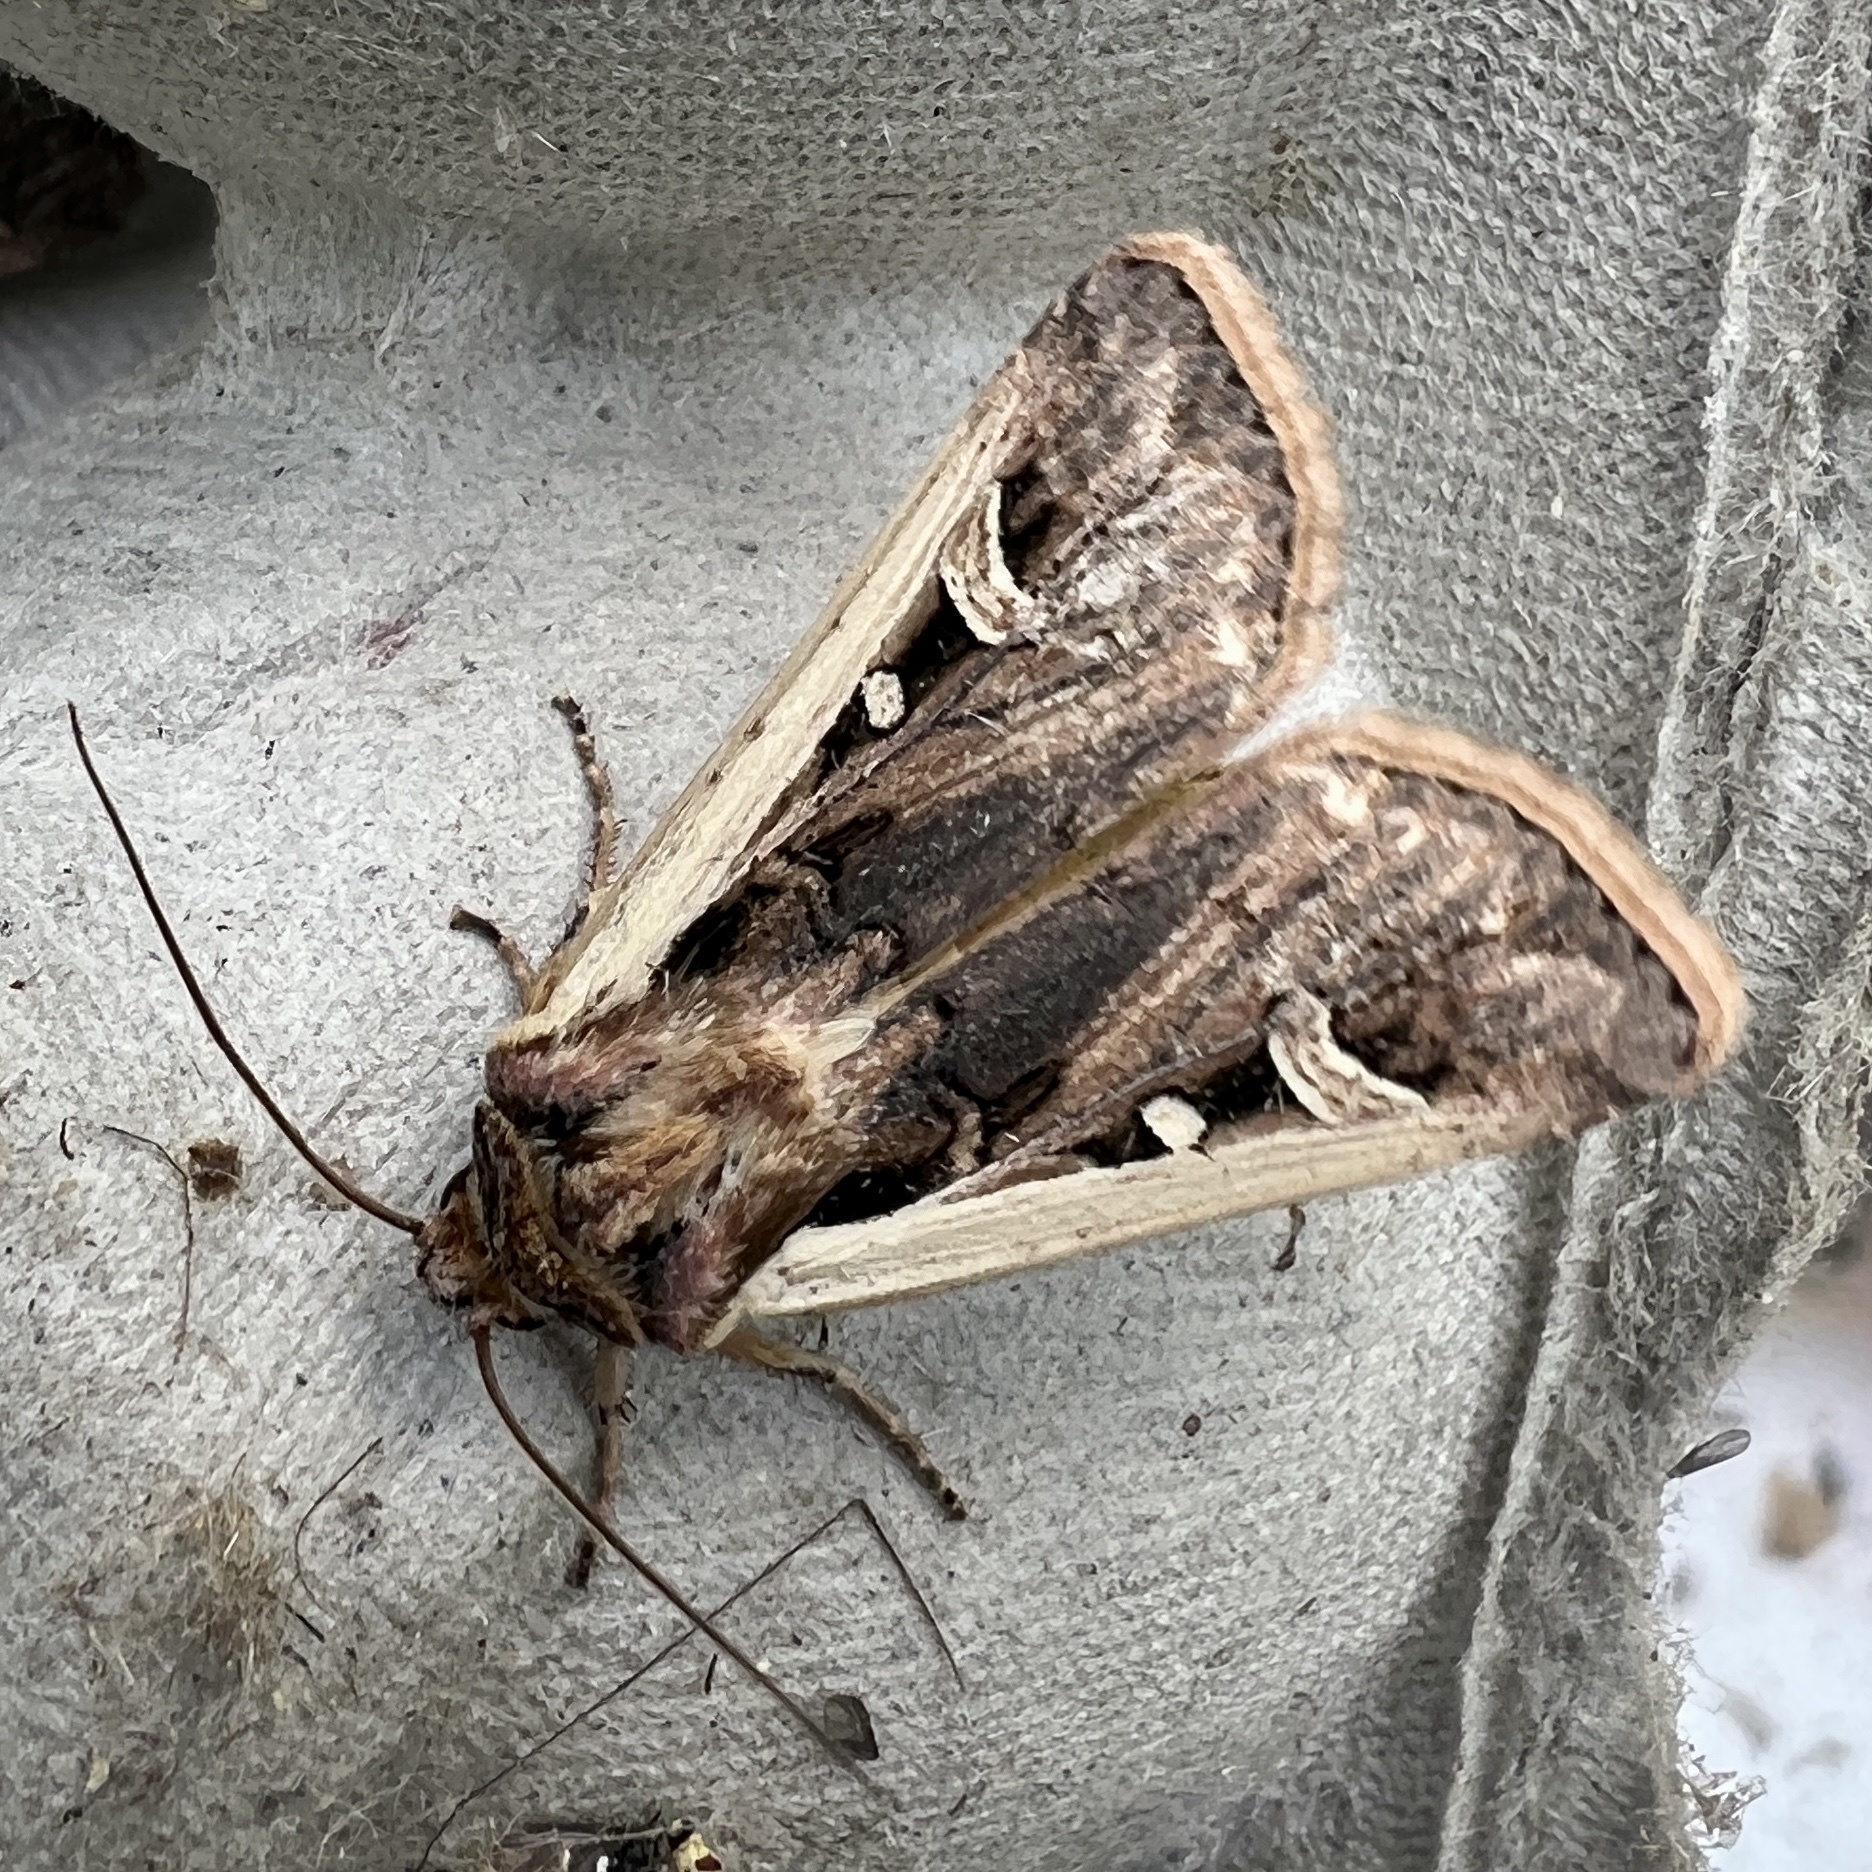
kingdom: Animalia
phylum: Arthropoda
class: Insecta
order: Lepidoptera
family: Noctuidae
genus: Striacosta
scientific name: Striacosta albicosta
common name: Western bean cutworm moth
